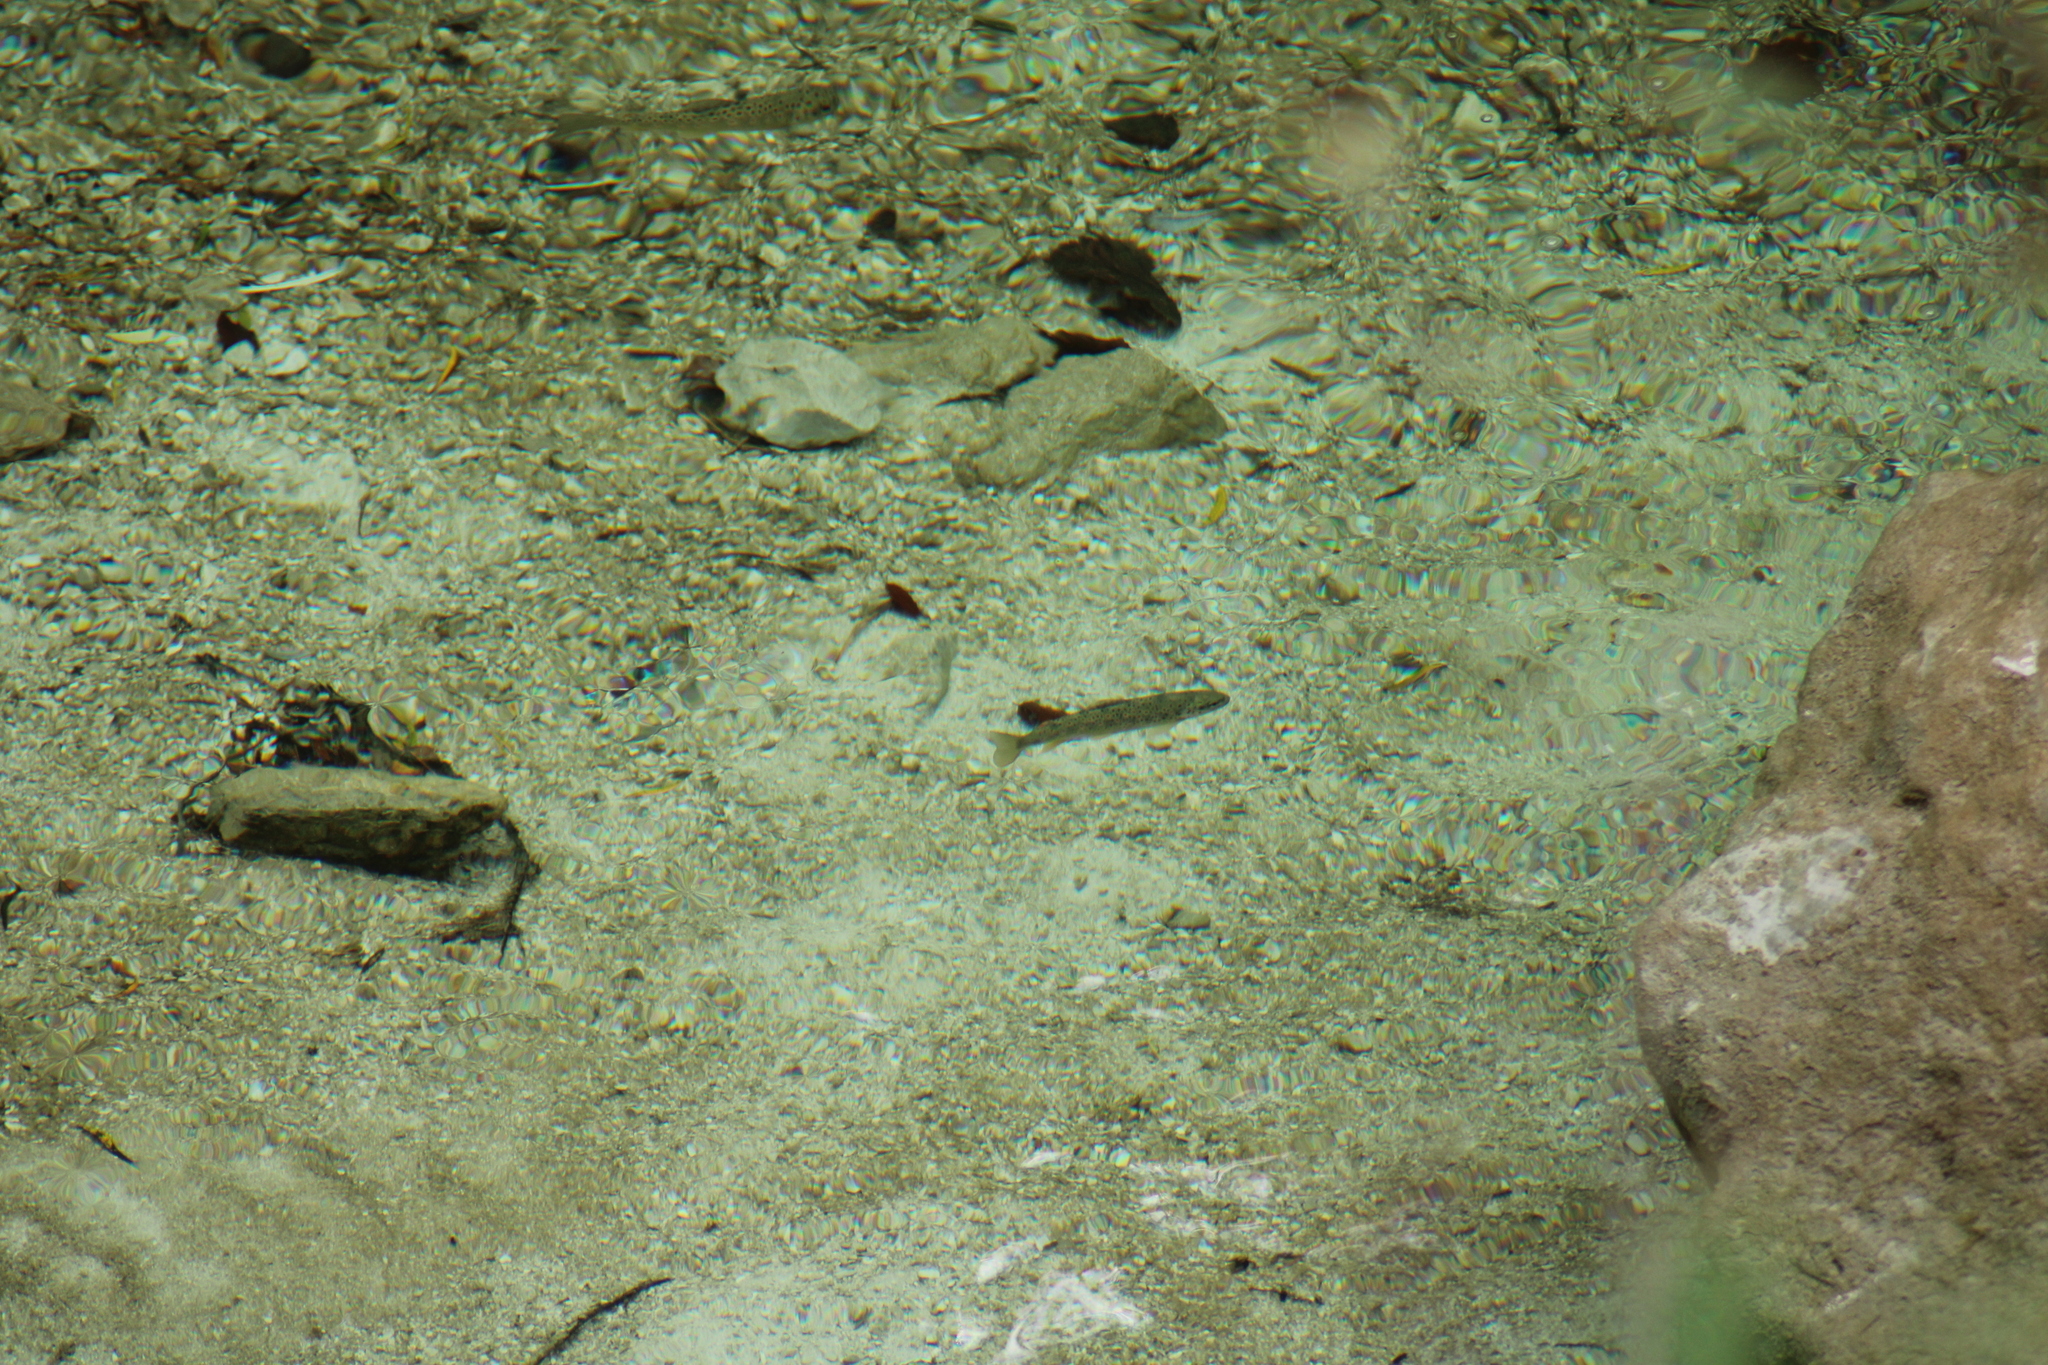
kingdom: Animalia
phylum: Chordata
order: Salmoniformes
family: Salmonidae
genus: Salmo
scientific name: Salmo trutta
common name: Brown trout
